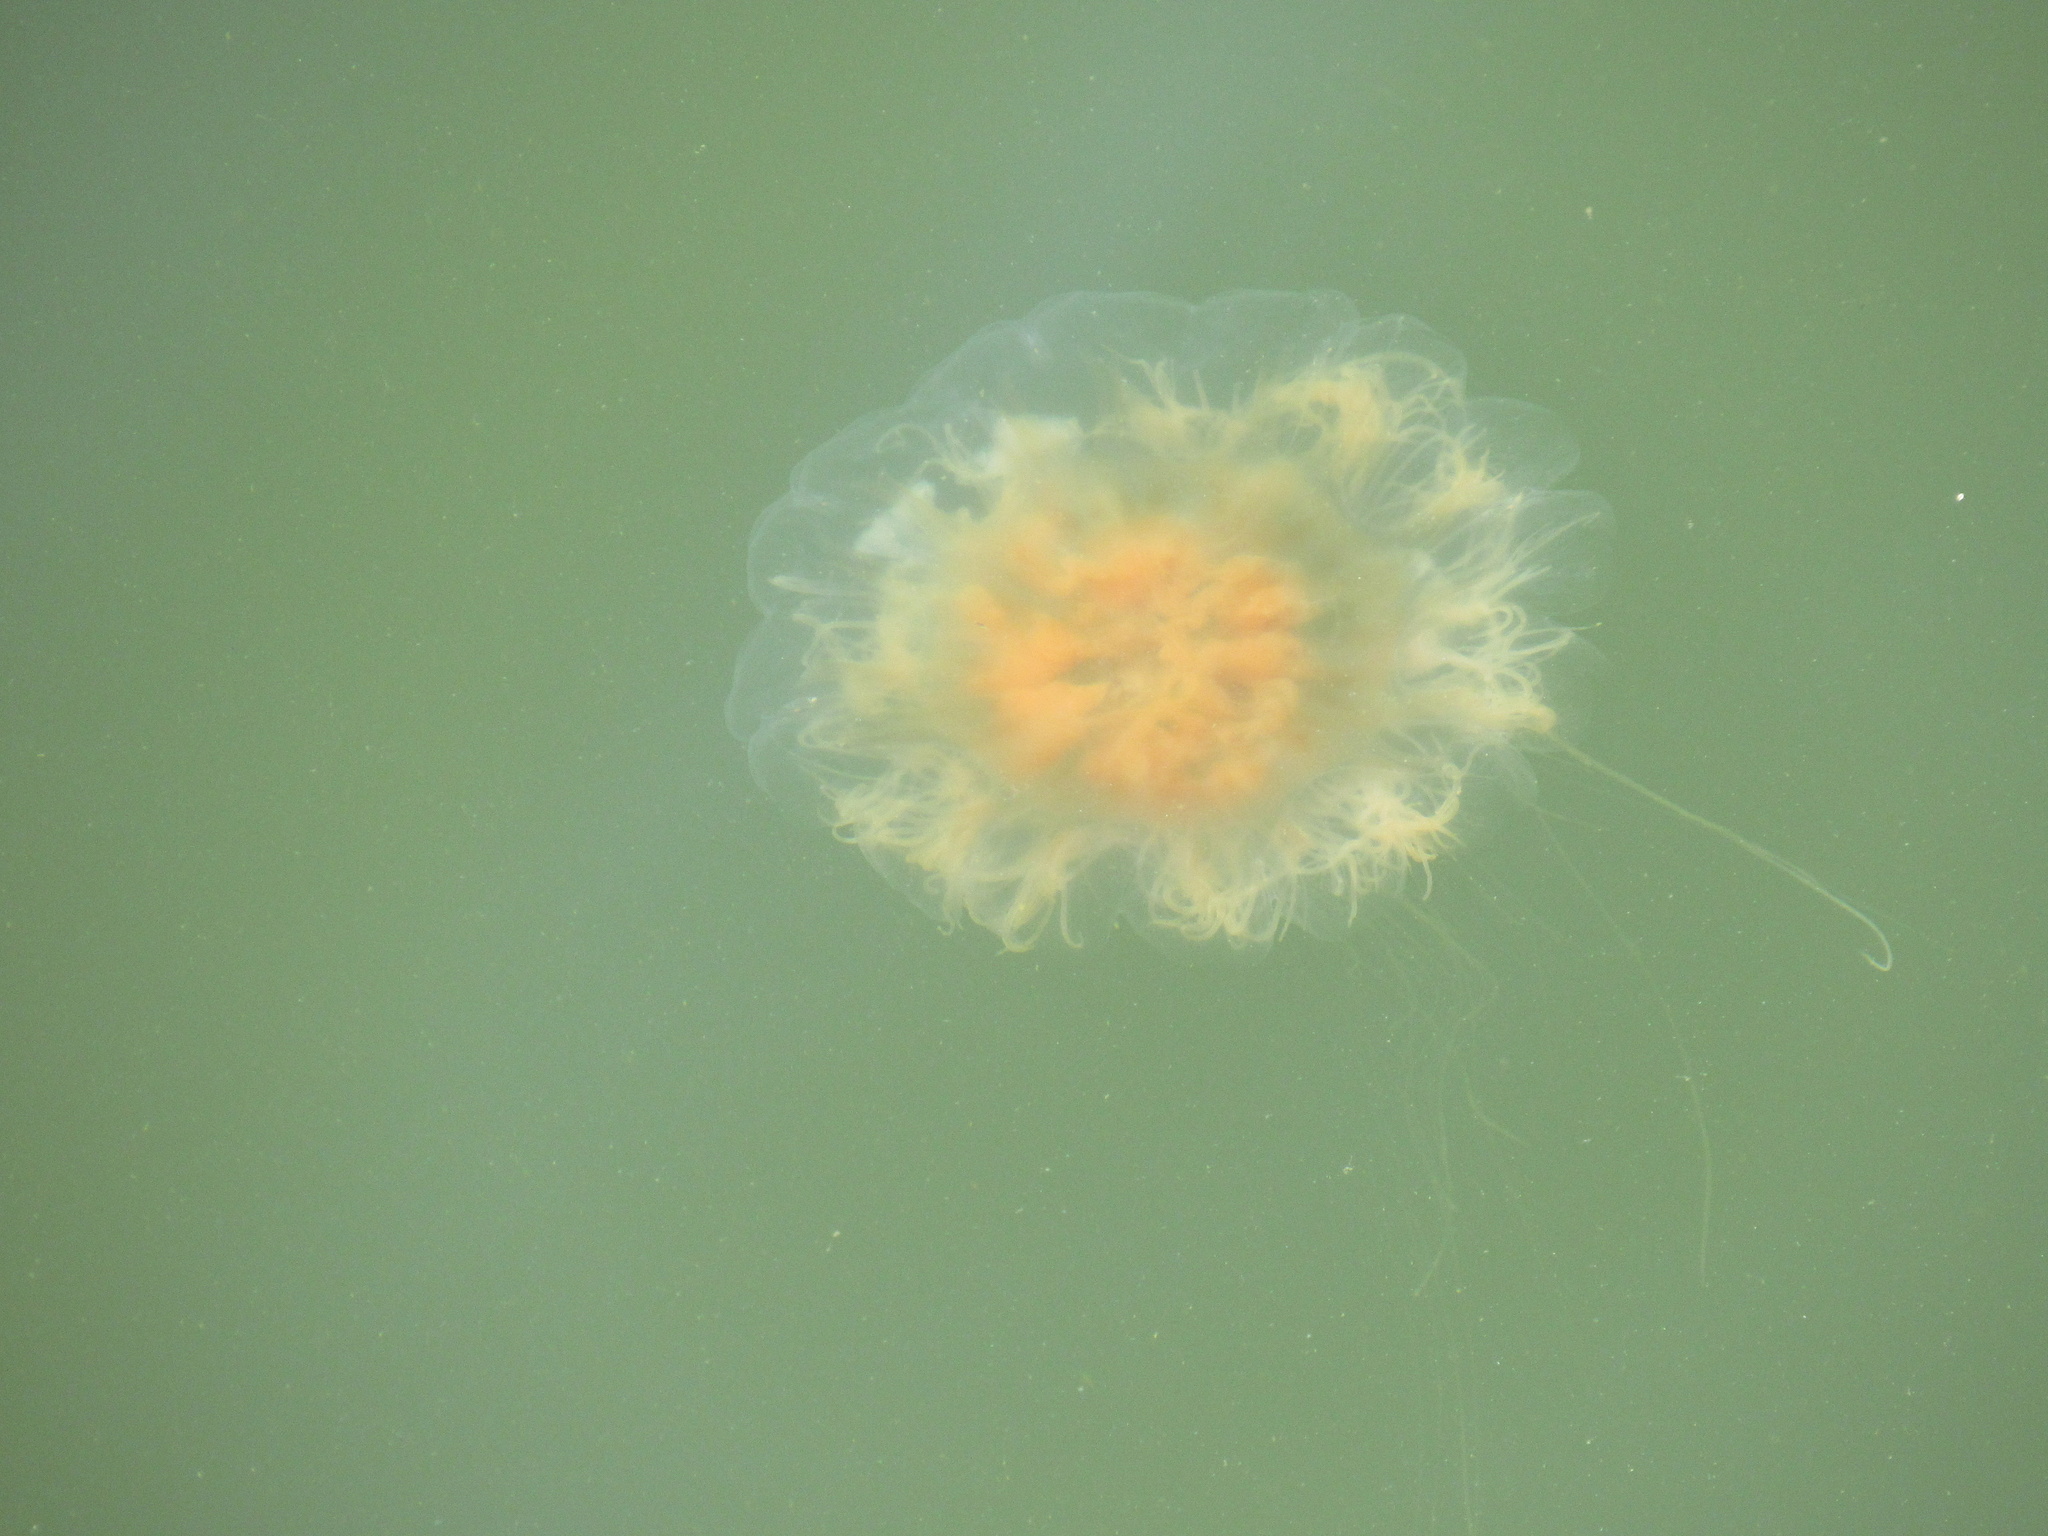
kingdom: Animalia
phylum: Cnidaria
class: Scyphozoa
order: Semaeostomeae
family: Cyaneidae
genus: Cyanea
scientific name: Cyanea fulva
